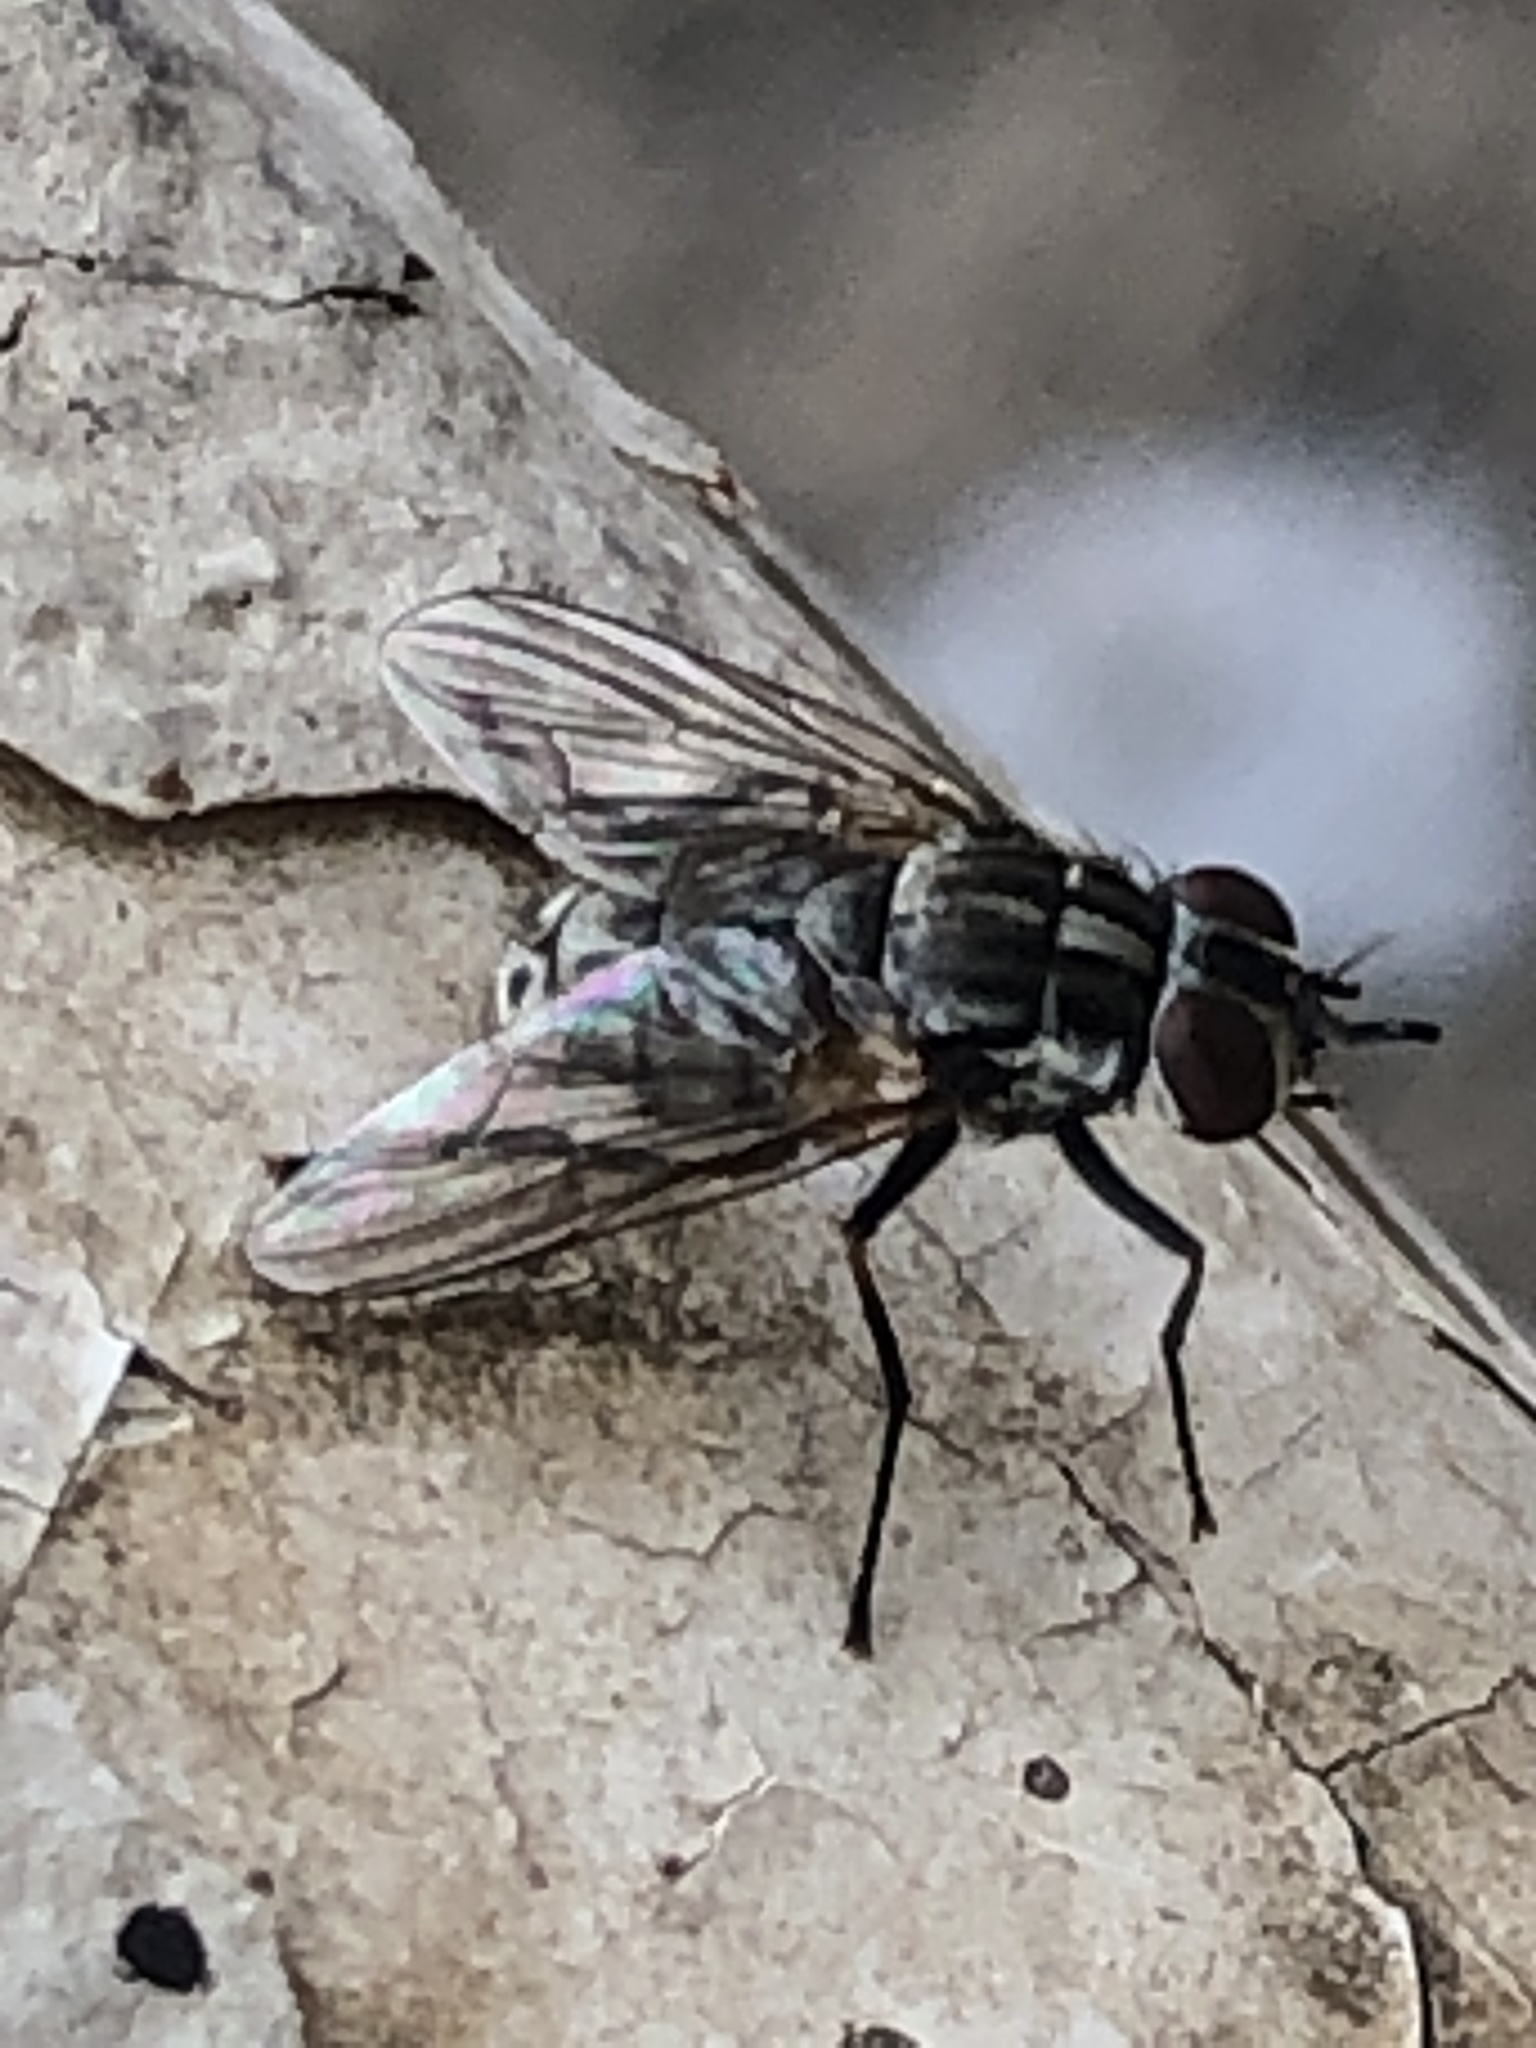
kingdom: Animalia
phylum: Arthropoda
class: Insecta
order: Diptera
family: Muscidae
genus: Stomoxys
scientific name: Stomoxys calcitrans
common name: Stable fly
